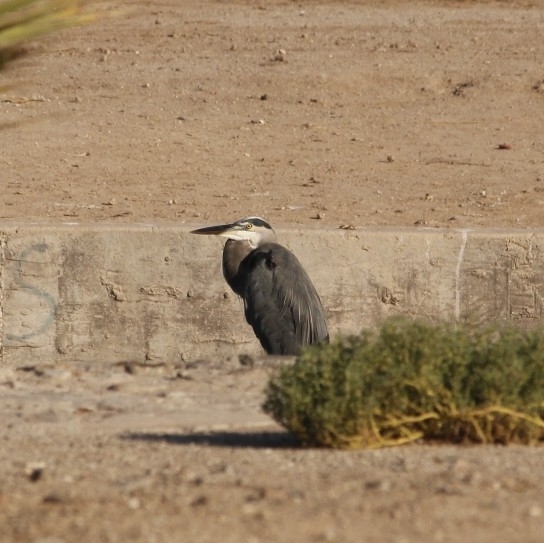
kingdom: Animalia
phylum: Chordata
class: Aves
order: Pelecaniformes
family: Ardeidae
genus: Ardea
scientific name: Ardea herodias
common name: Great blue heron
